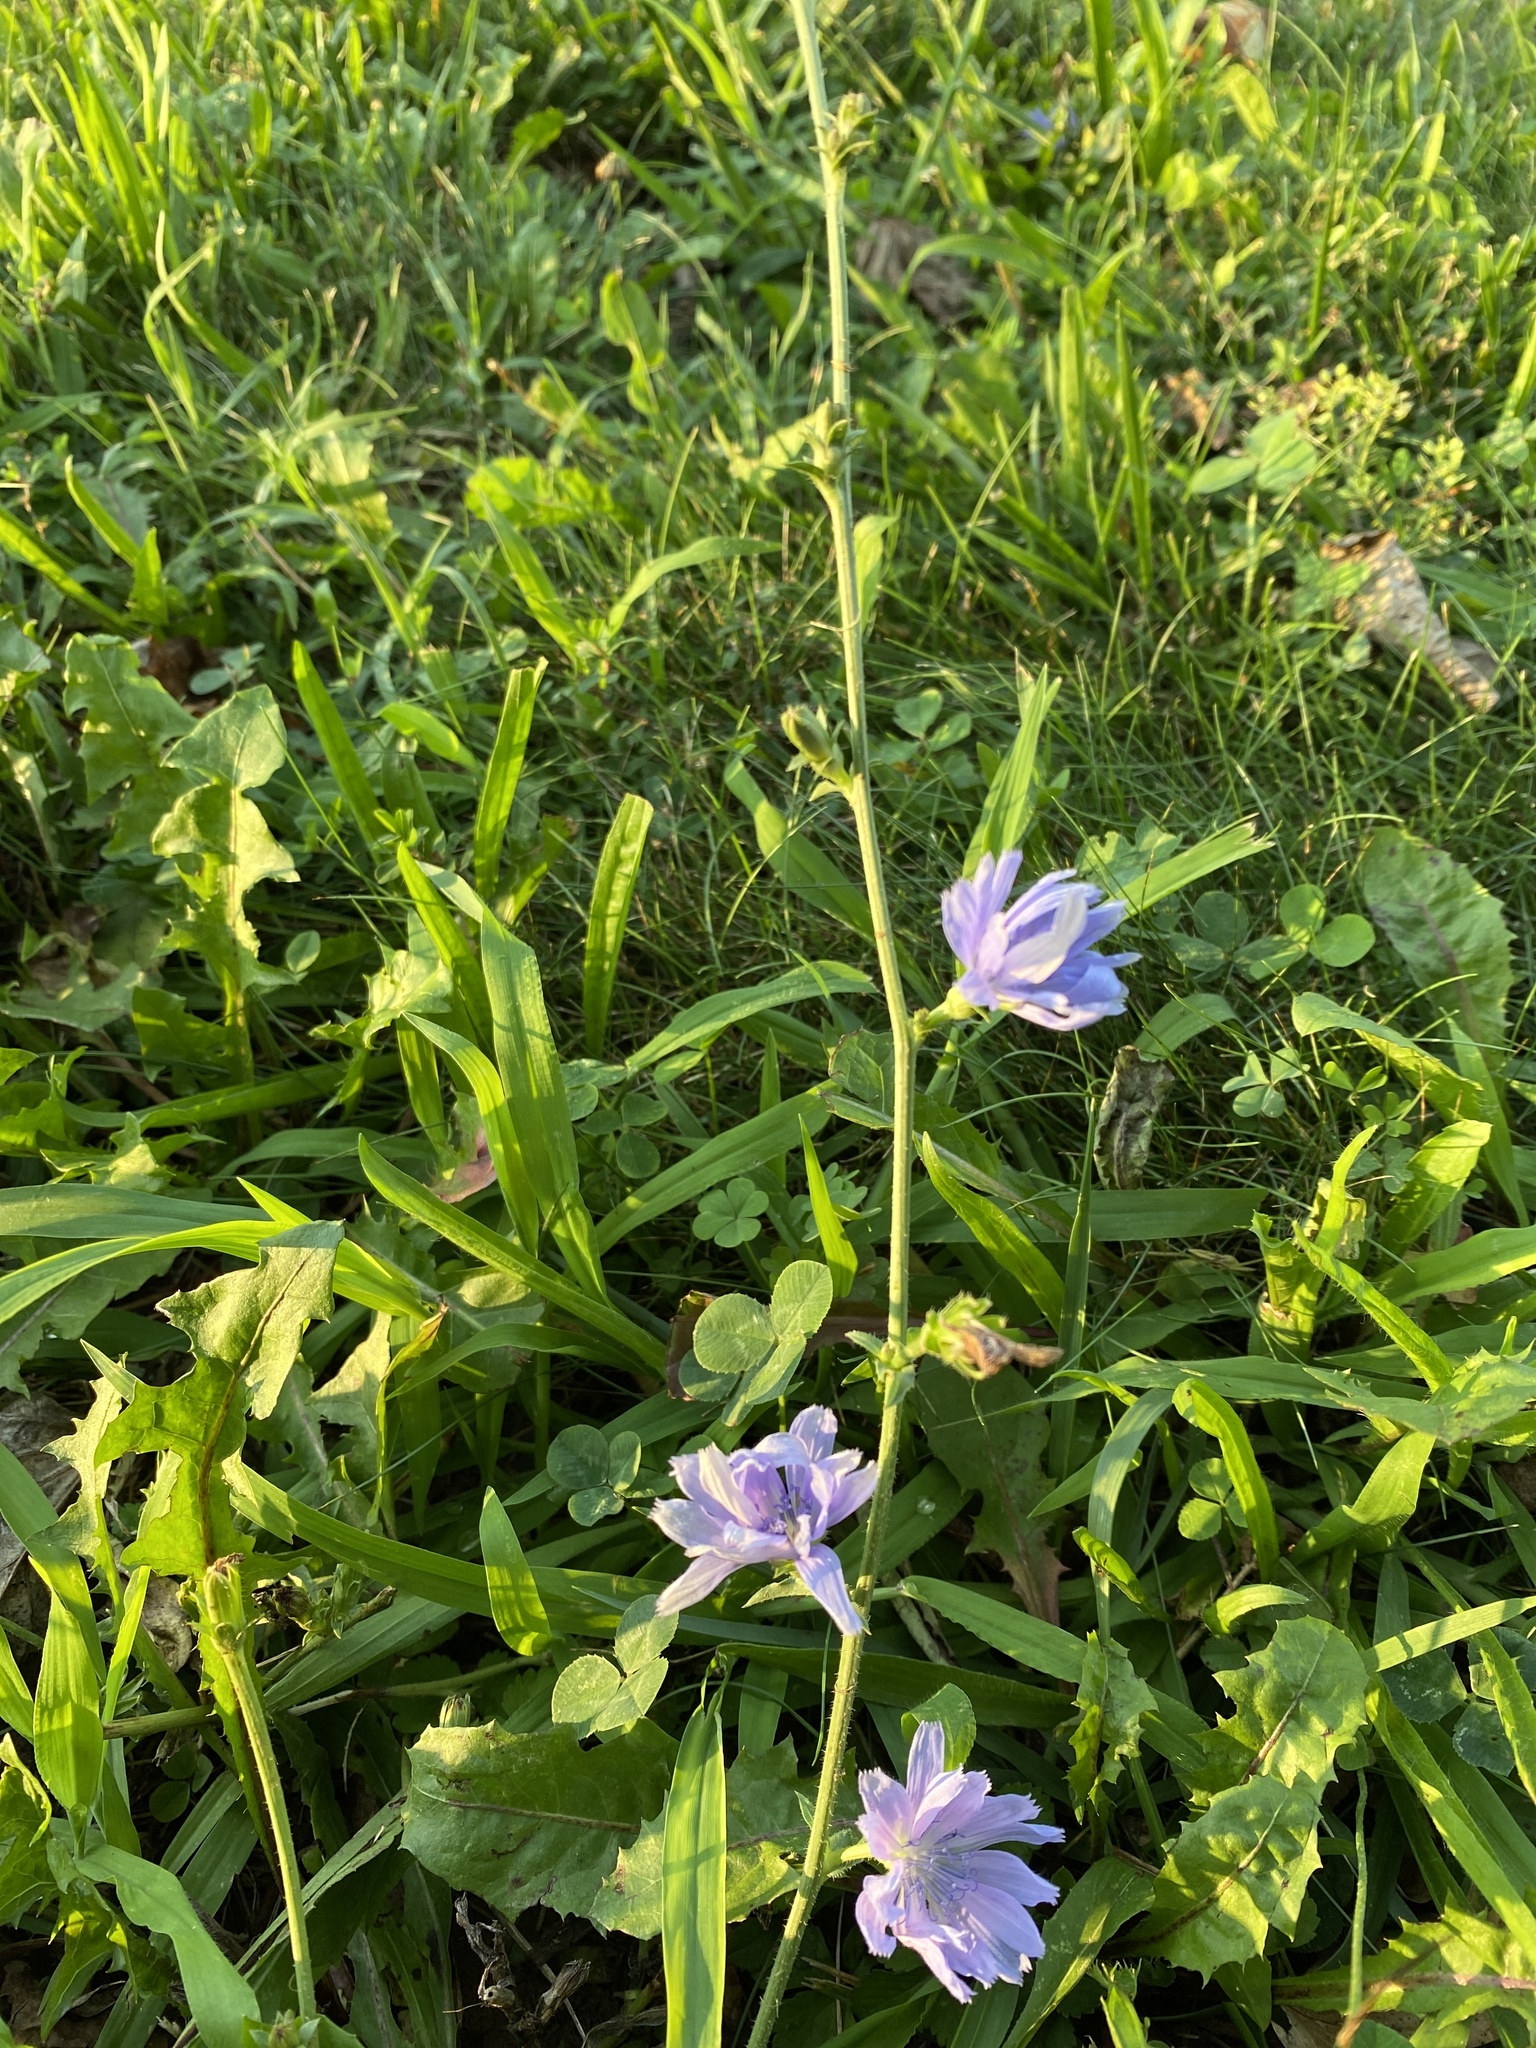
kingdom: Plantae
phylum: Tracheophyta
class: Magnoliopsida
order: Asterales
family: Asteraceae
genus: Cichorium
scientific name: Cichorium intybus
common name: Chicory
